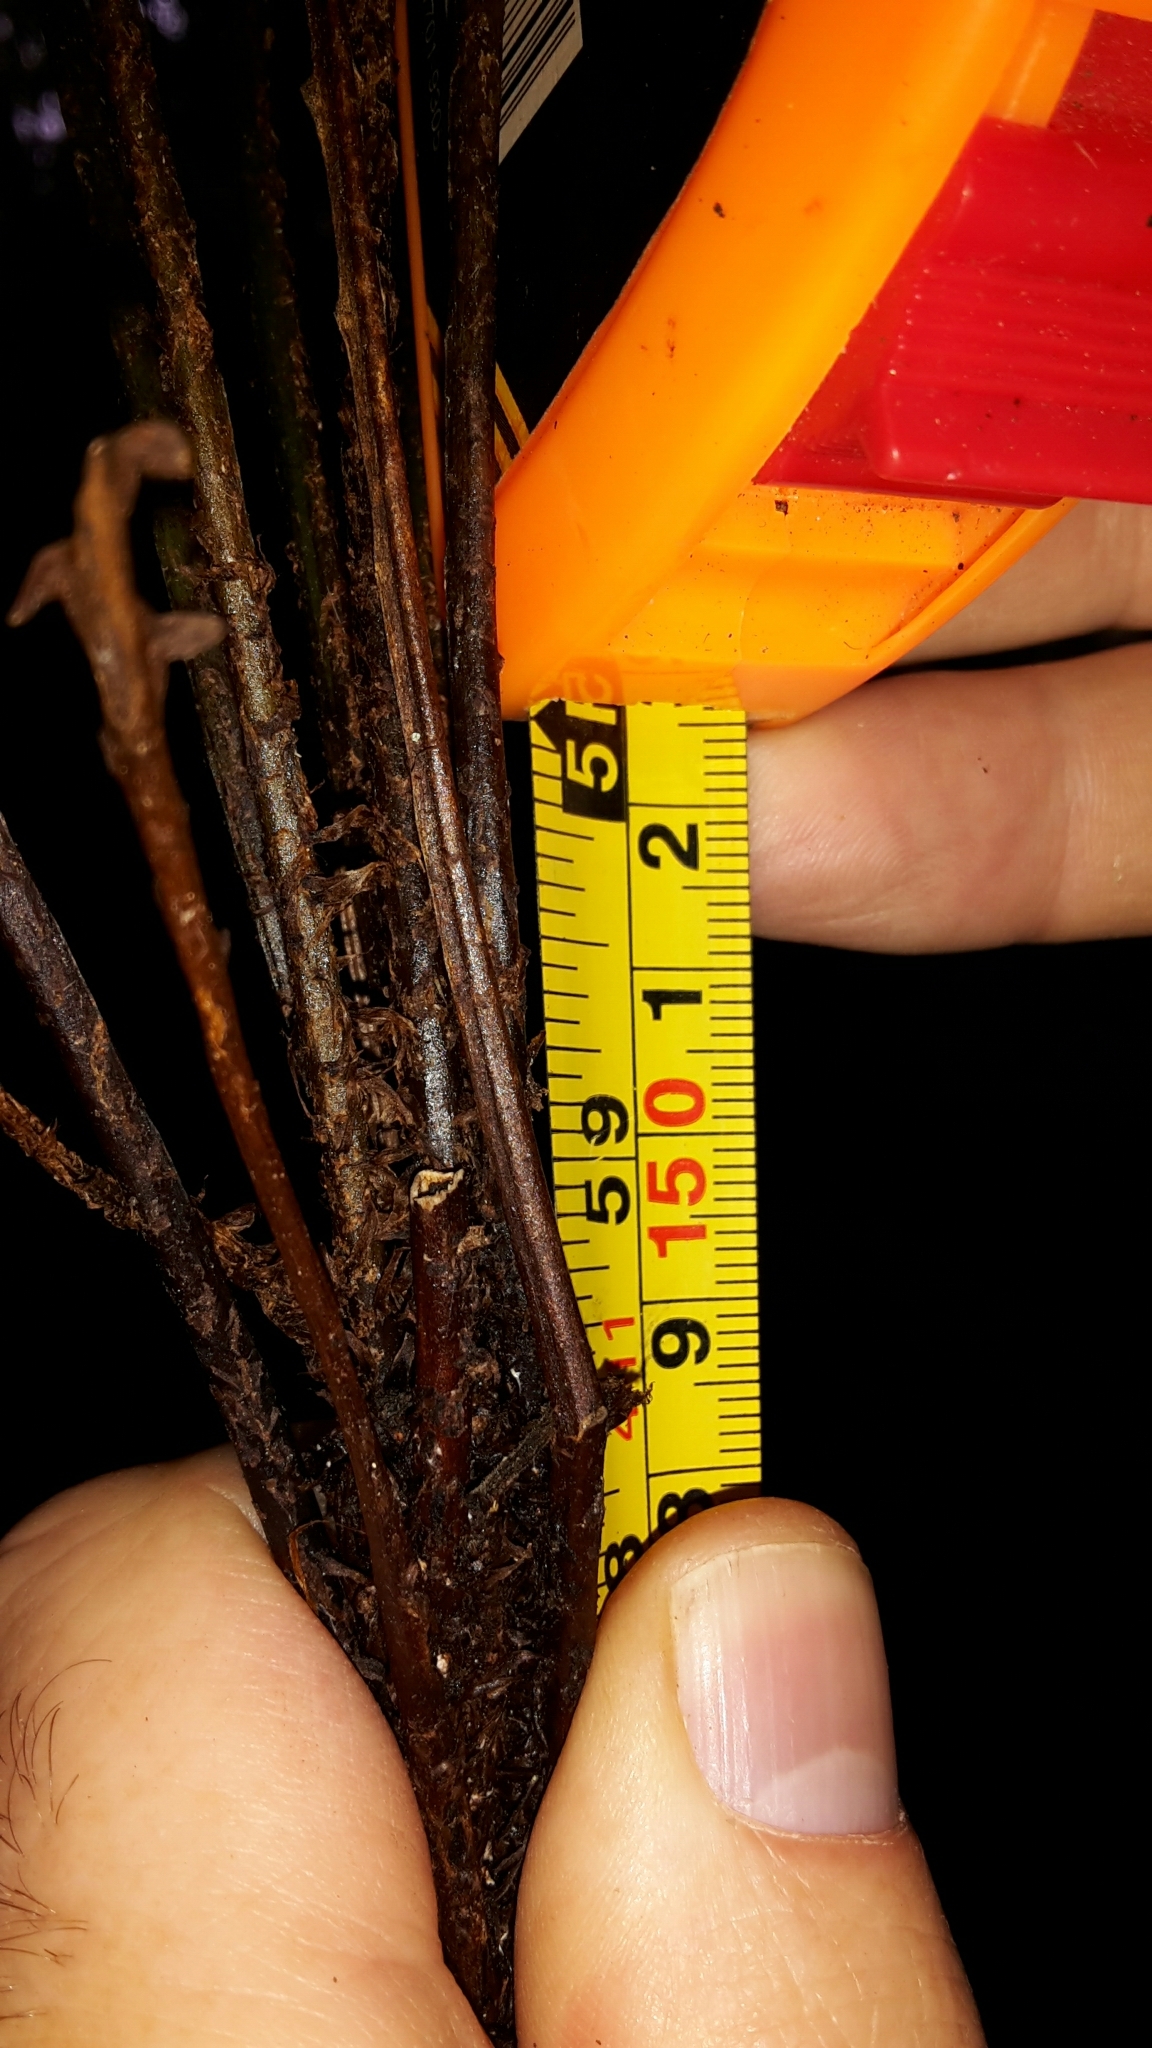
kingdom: Plantae
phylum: Tracheophyta
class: Polypodiopsida
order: Polypodiales
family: Blechnaceae
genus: Diploblechnum
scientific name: Diploblechnum fraseri
